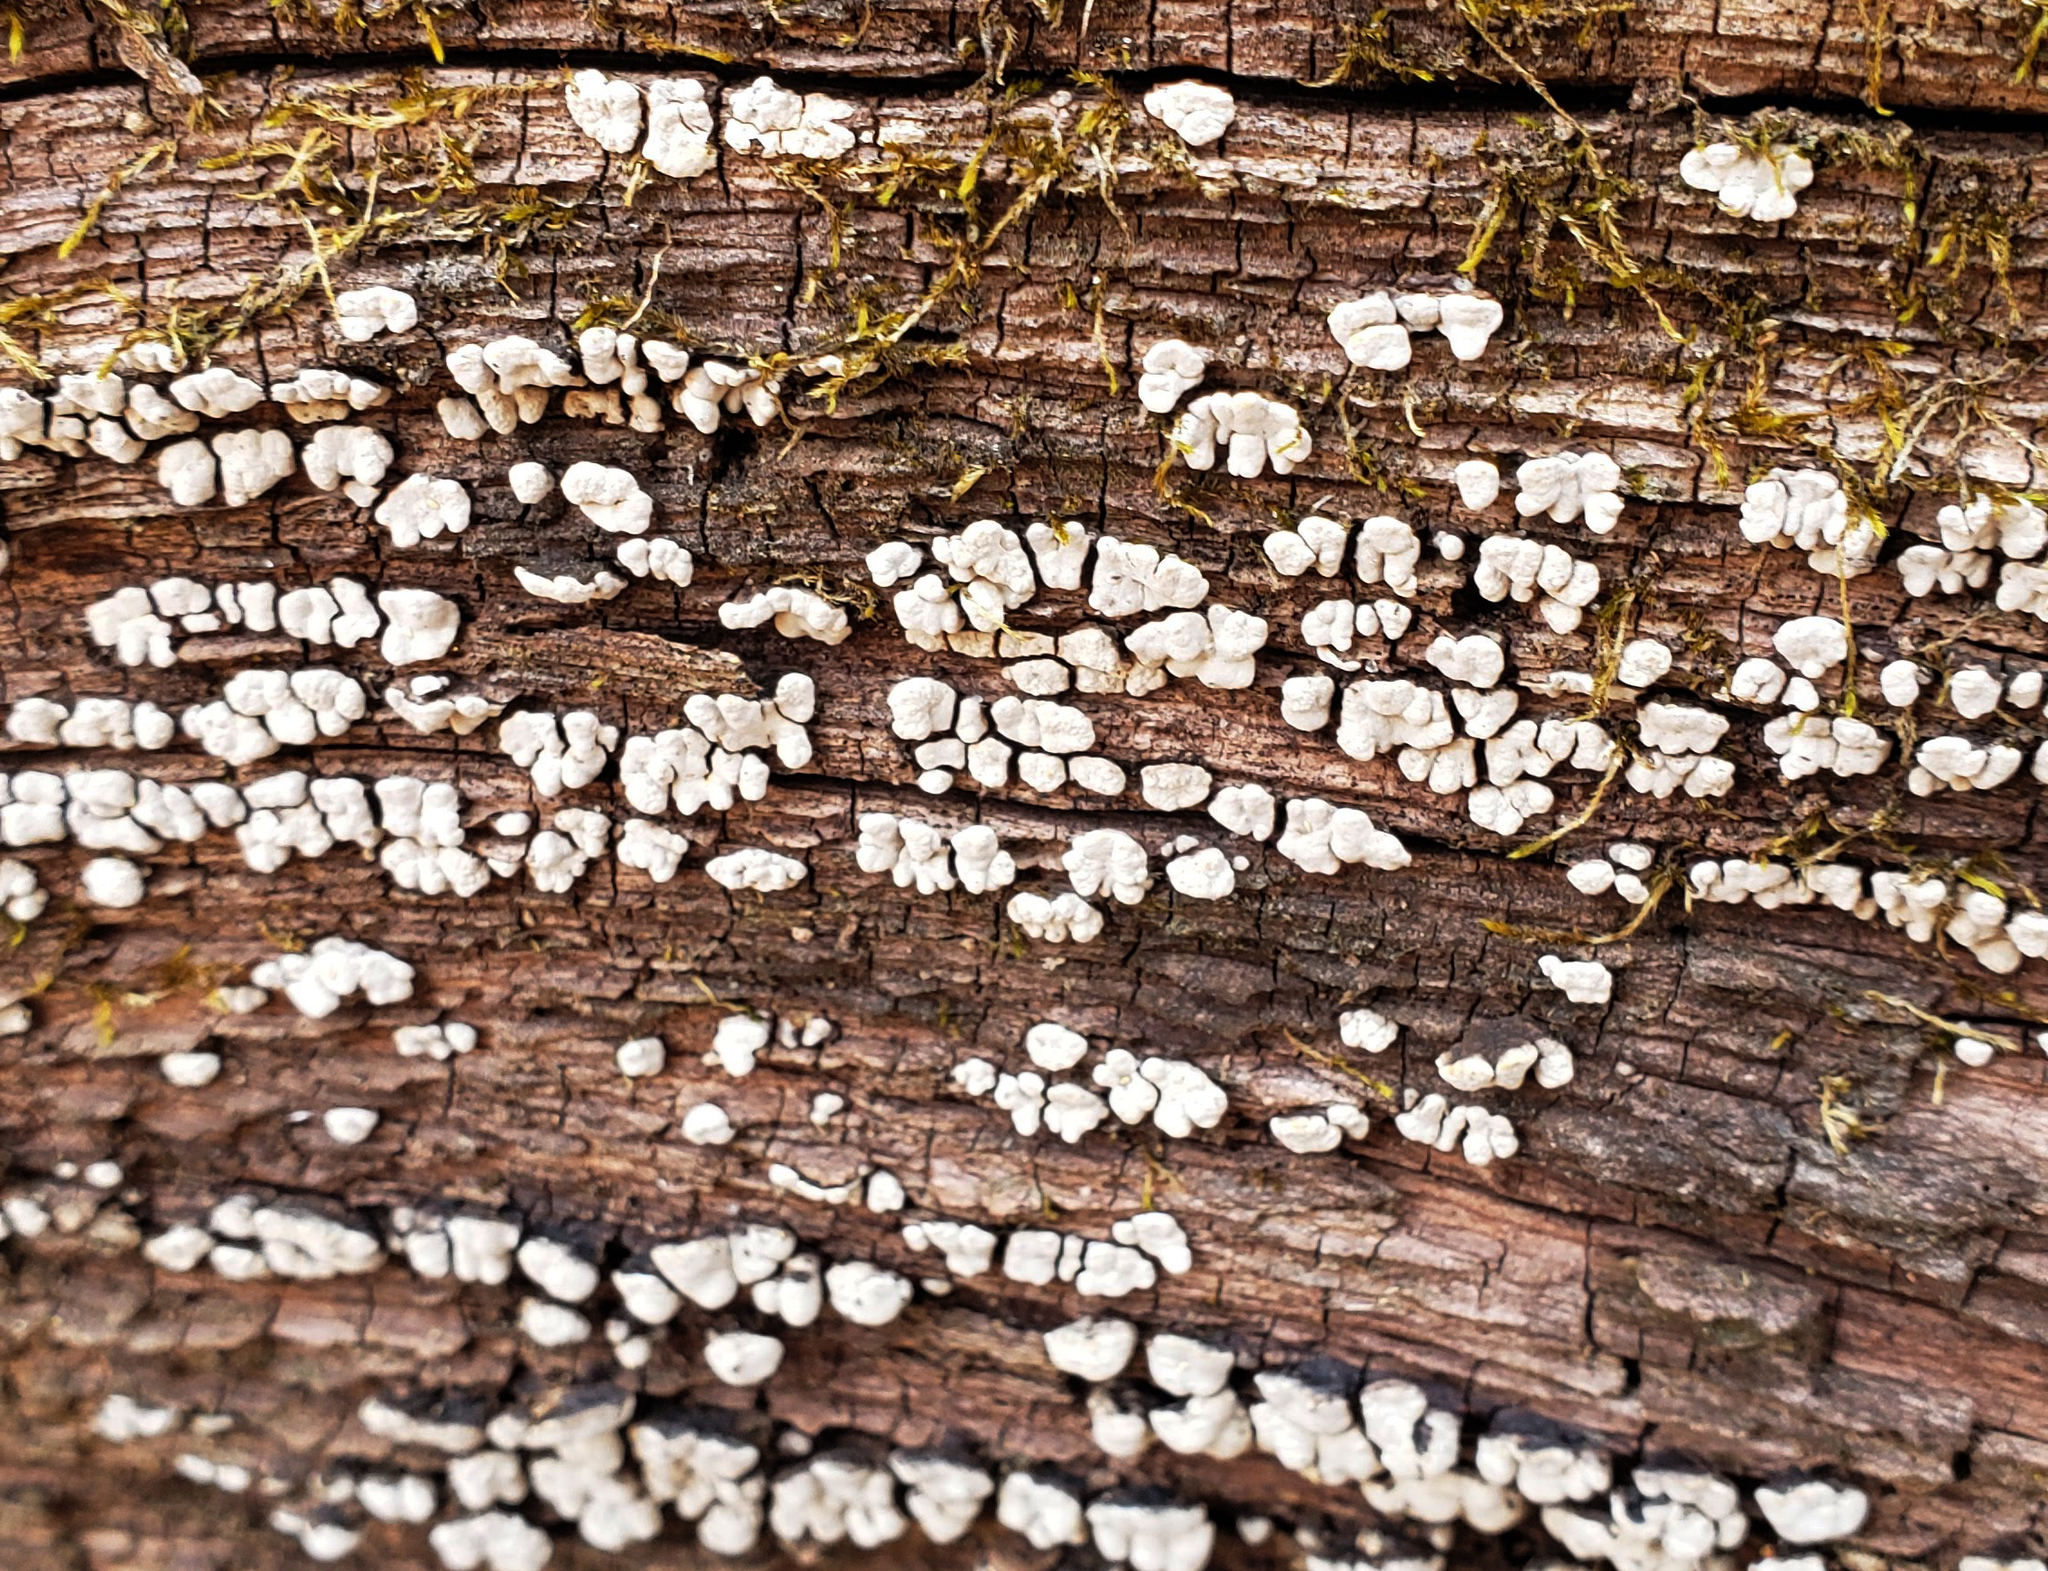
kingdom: Fungi
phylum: Basidiomycota
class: Agaricomycetes
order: Russulales
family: Stereaceae
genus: Xylobolus
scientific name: Xylobolus frustulatus
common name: Ceramic parchment
